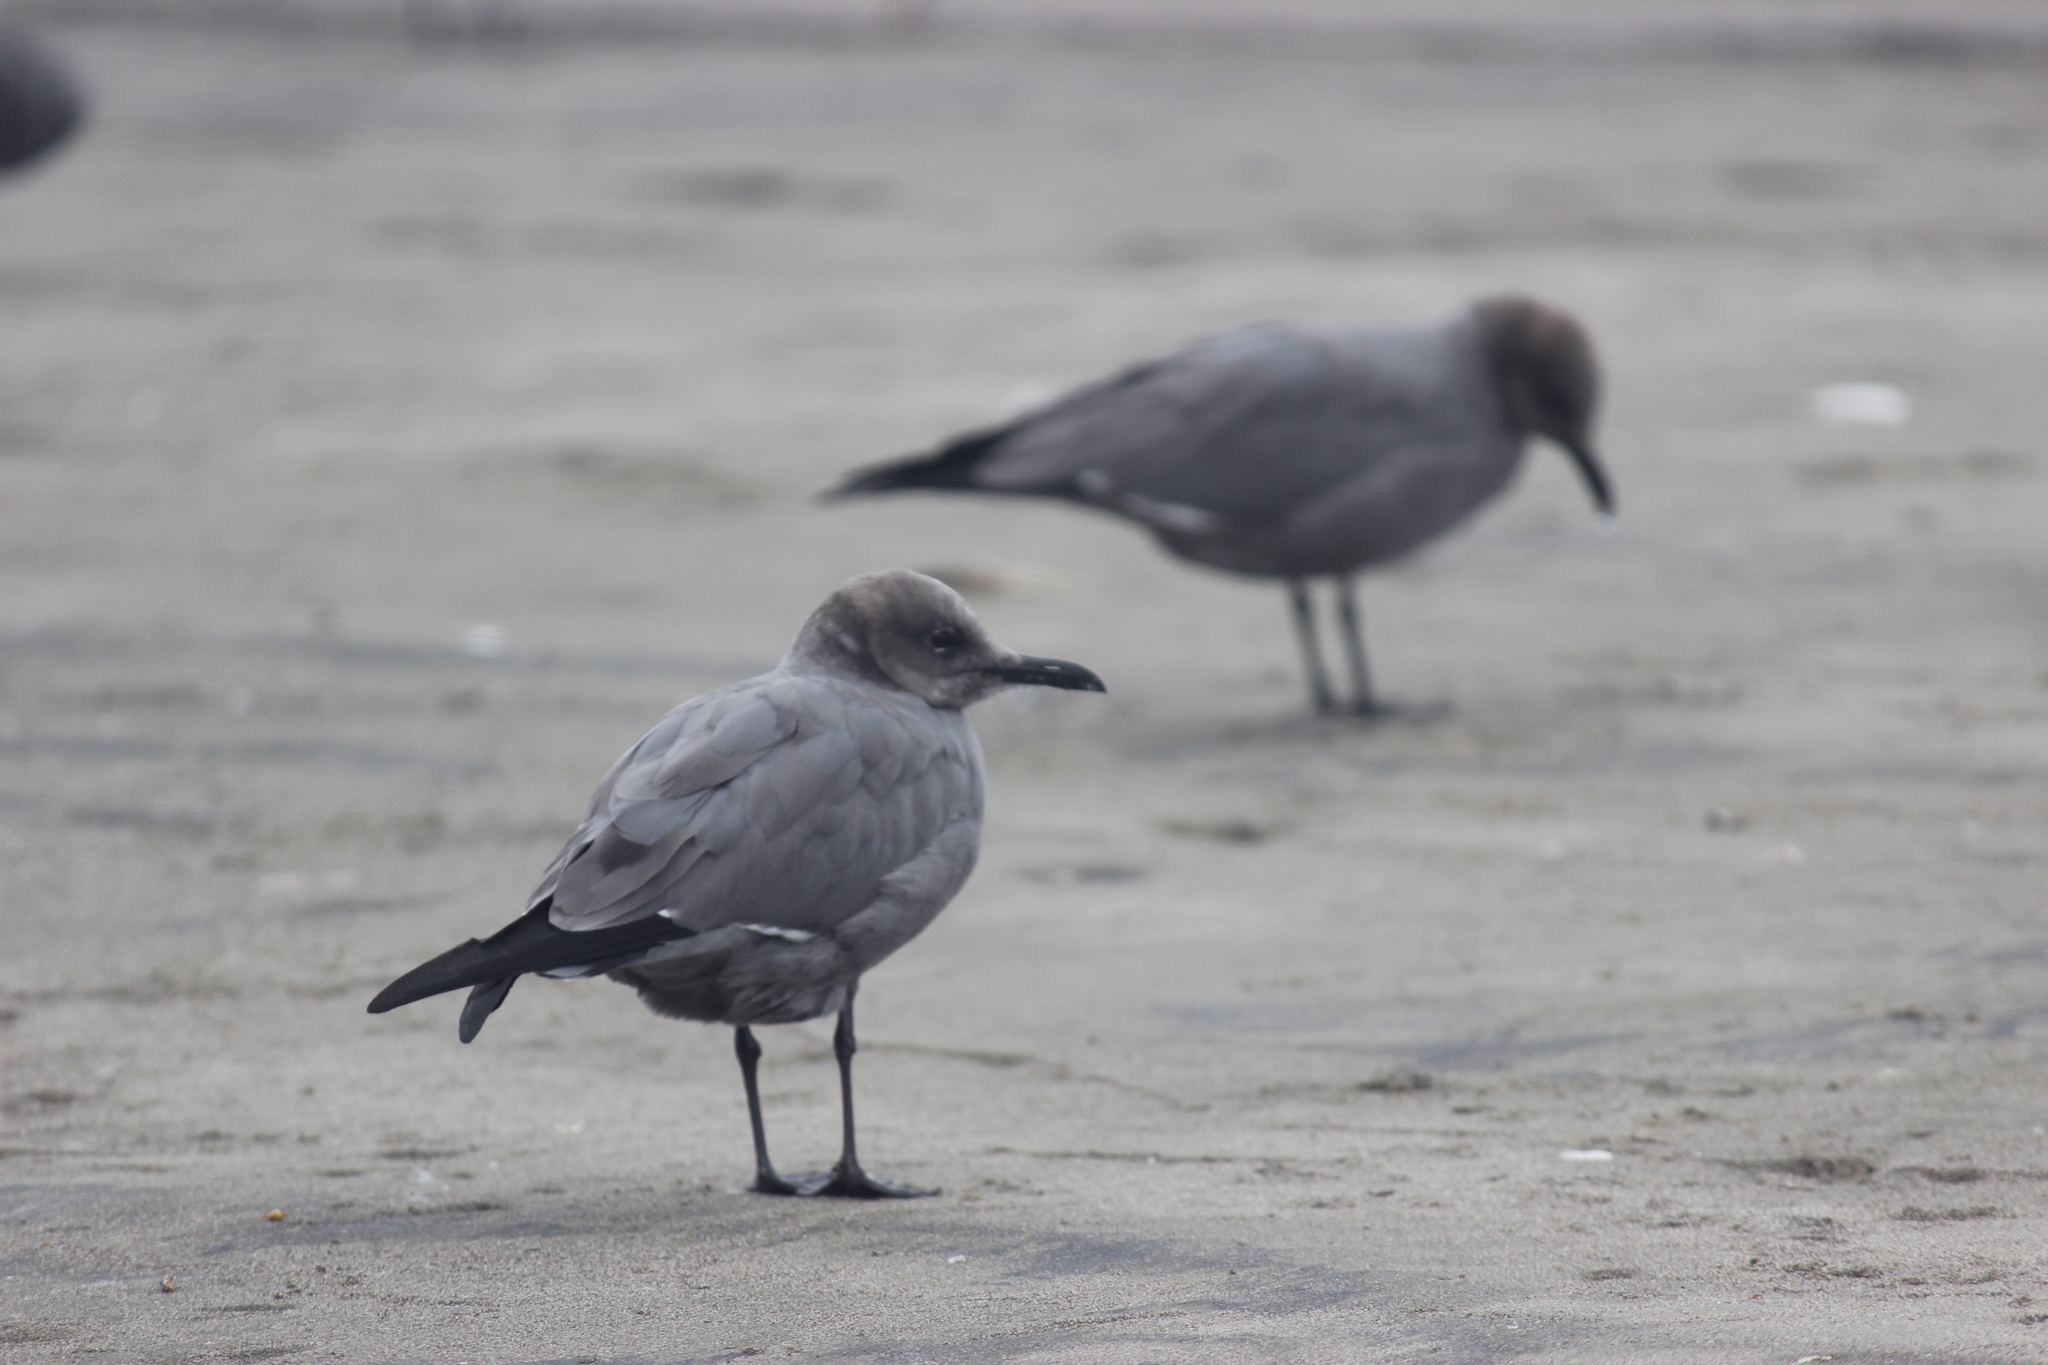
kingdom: Animalia
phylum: Chordata
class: Aves
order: Charadriiformes
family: Laridae
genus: Leucophaeus
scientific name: Leucophaeus modestus
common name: Gray gull
